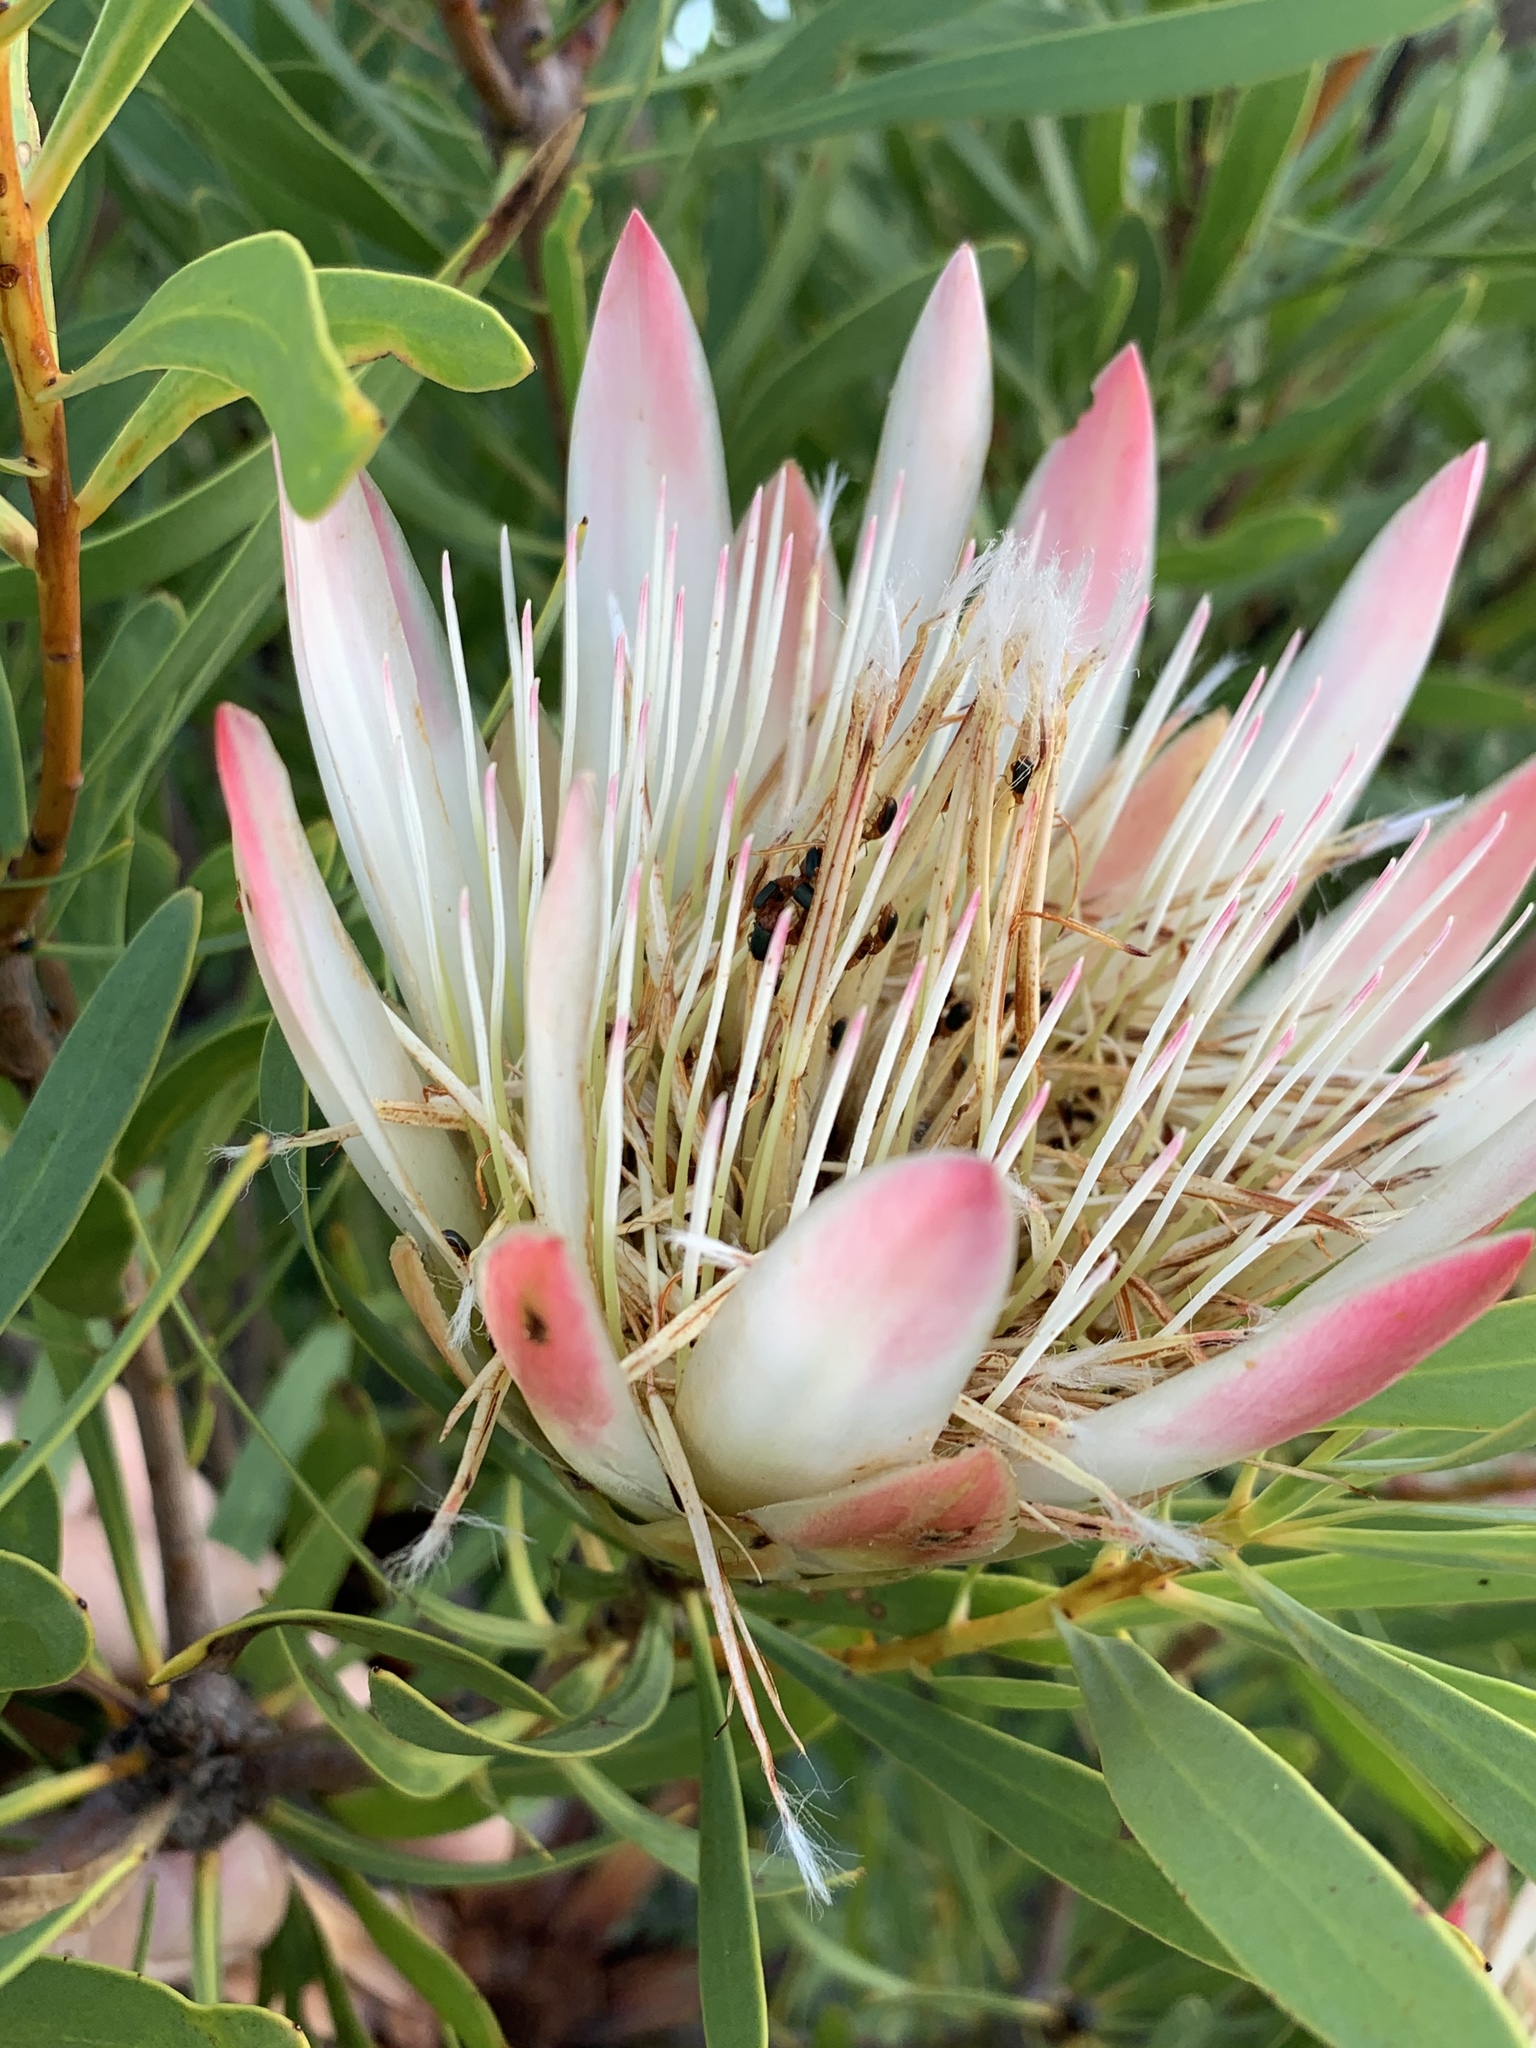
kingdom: Plantae
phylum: Tracheophyta
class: Magnoliopsida
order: Proteales
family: Proteaceae
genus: Protea
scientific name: Protea repens
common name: Sugarbush
